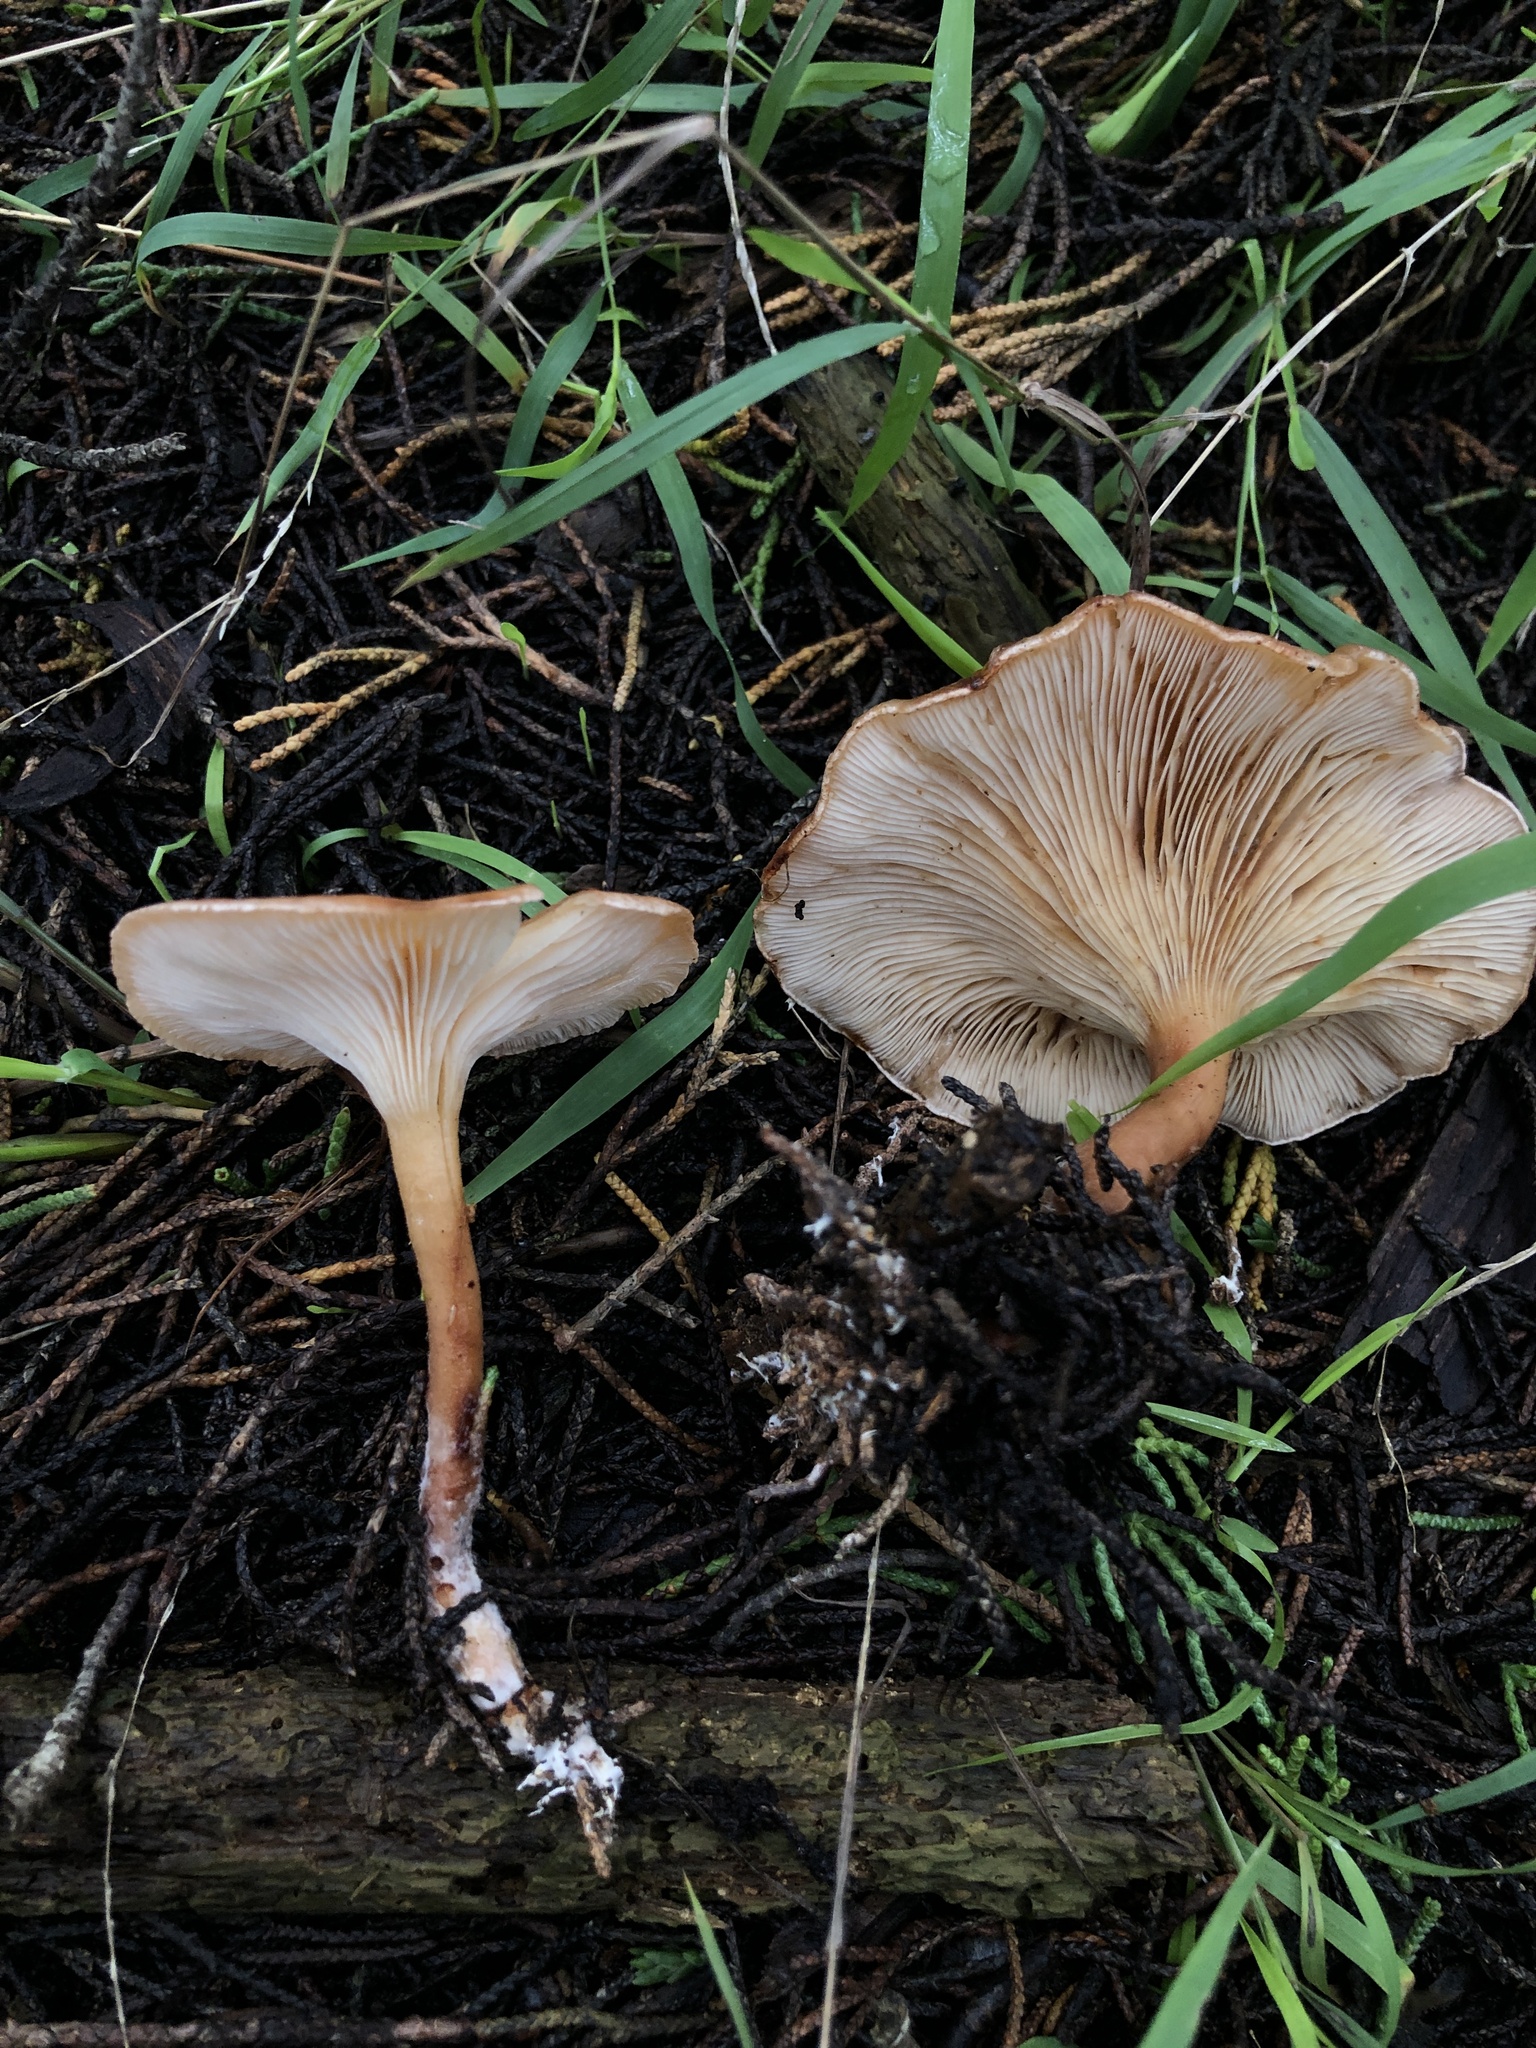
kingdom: Fungi
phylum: Basidiomycota
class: Agaricomycetes
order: Agaricales
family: Tricholomataceae
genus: Paralepista
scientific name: Paralepista flaccida
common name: Tawny funnel cap
